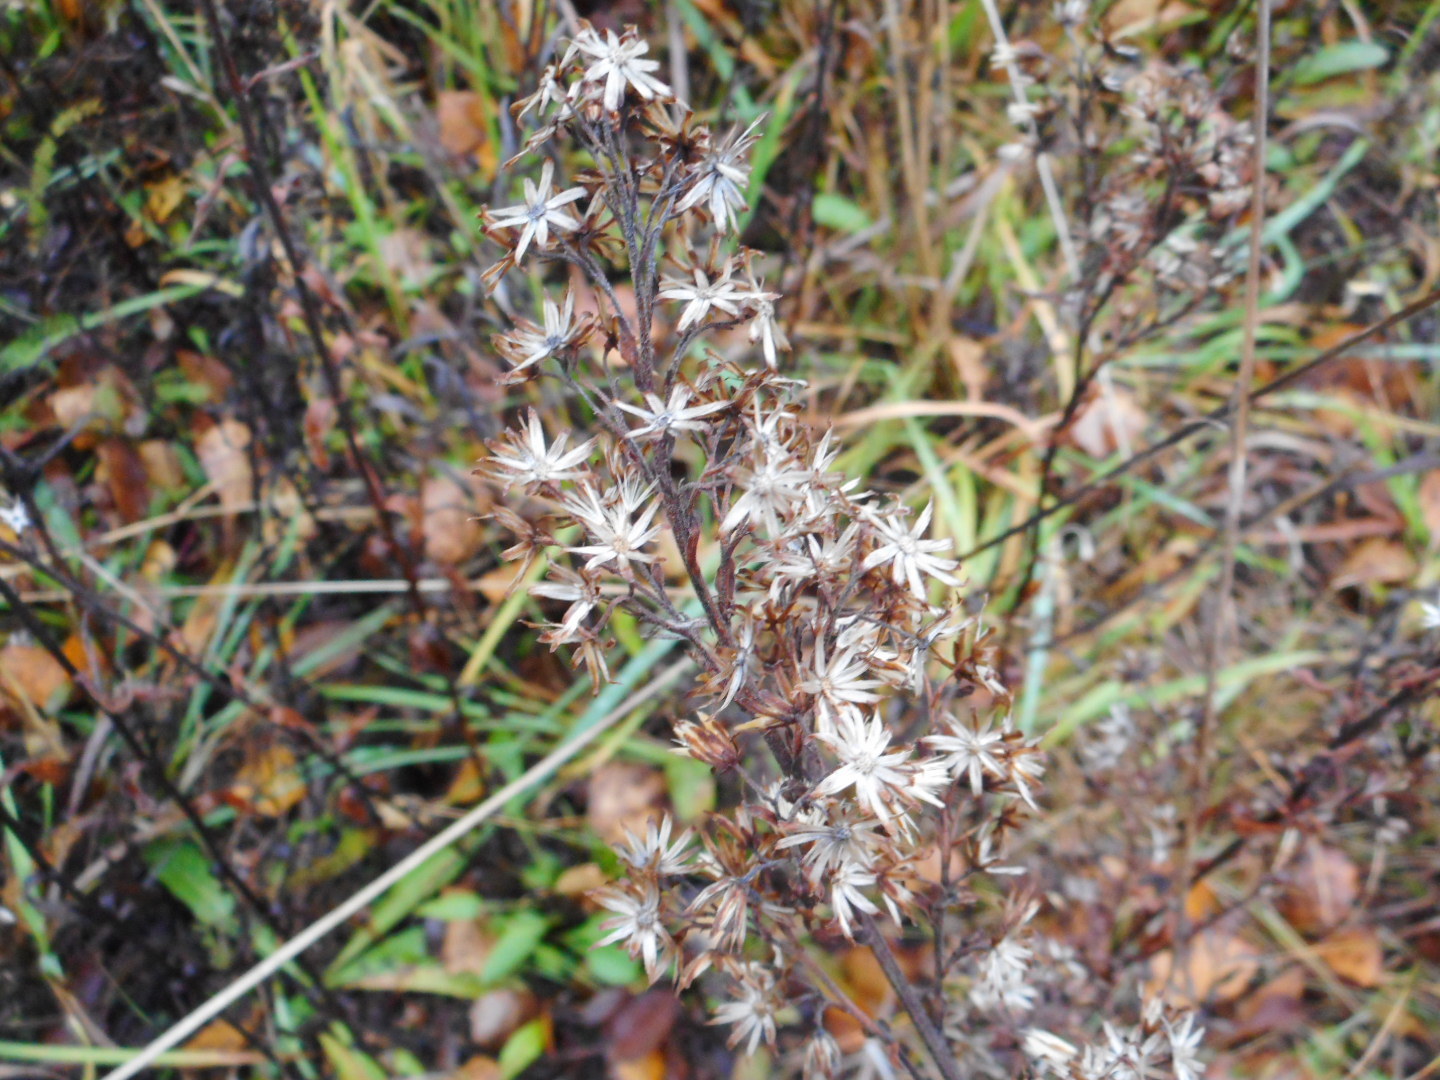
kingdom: Plantae
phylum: Tracheophyta
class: Magnoliopsida
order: Asterales
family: Asteraceae
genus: Solidago
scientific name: Solidago virgaurea
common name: Goldenrod
